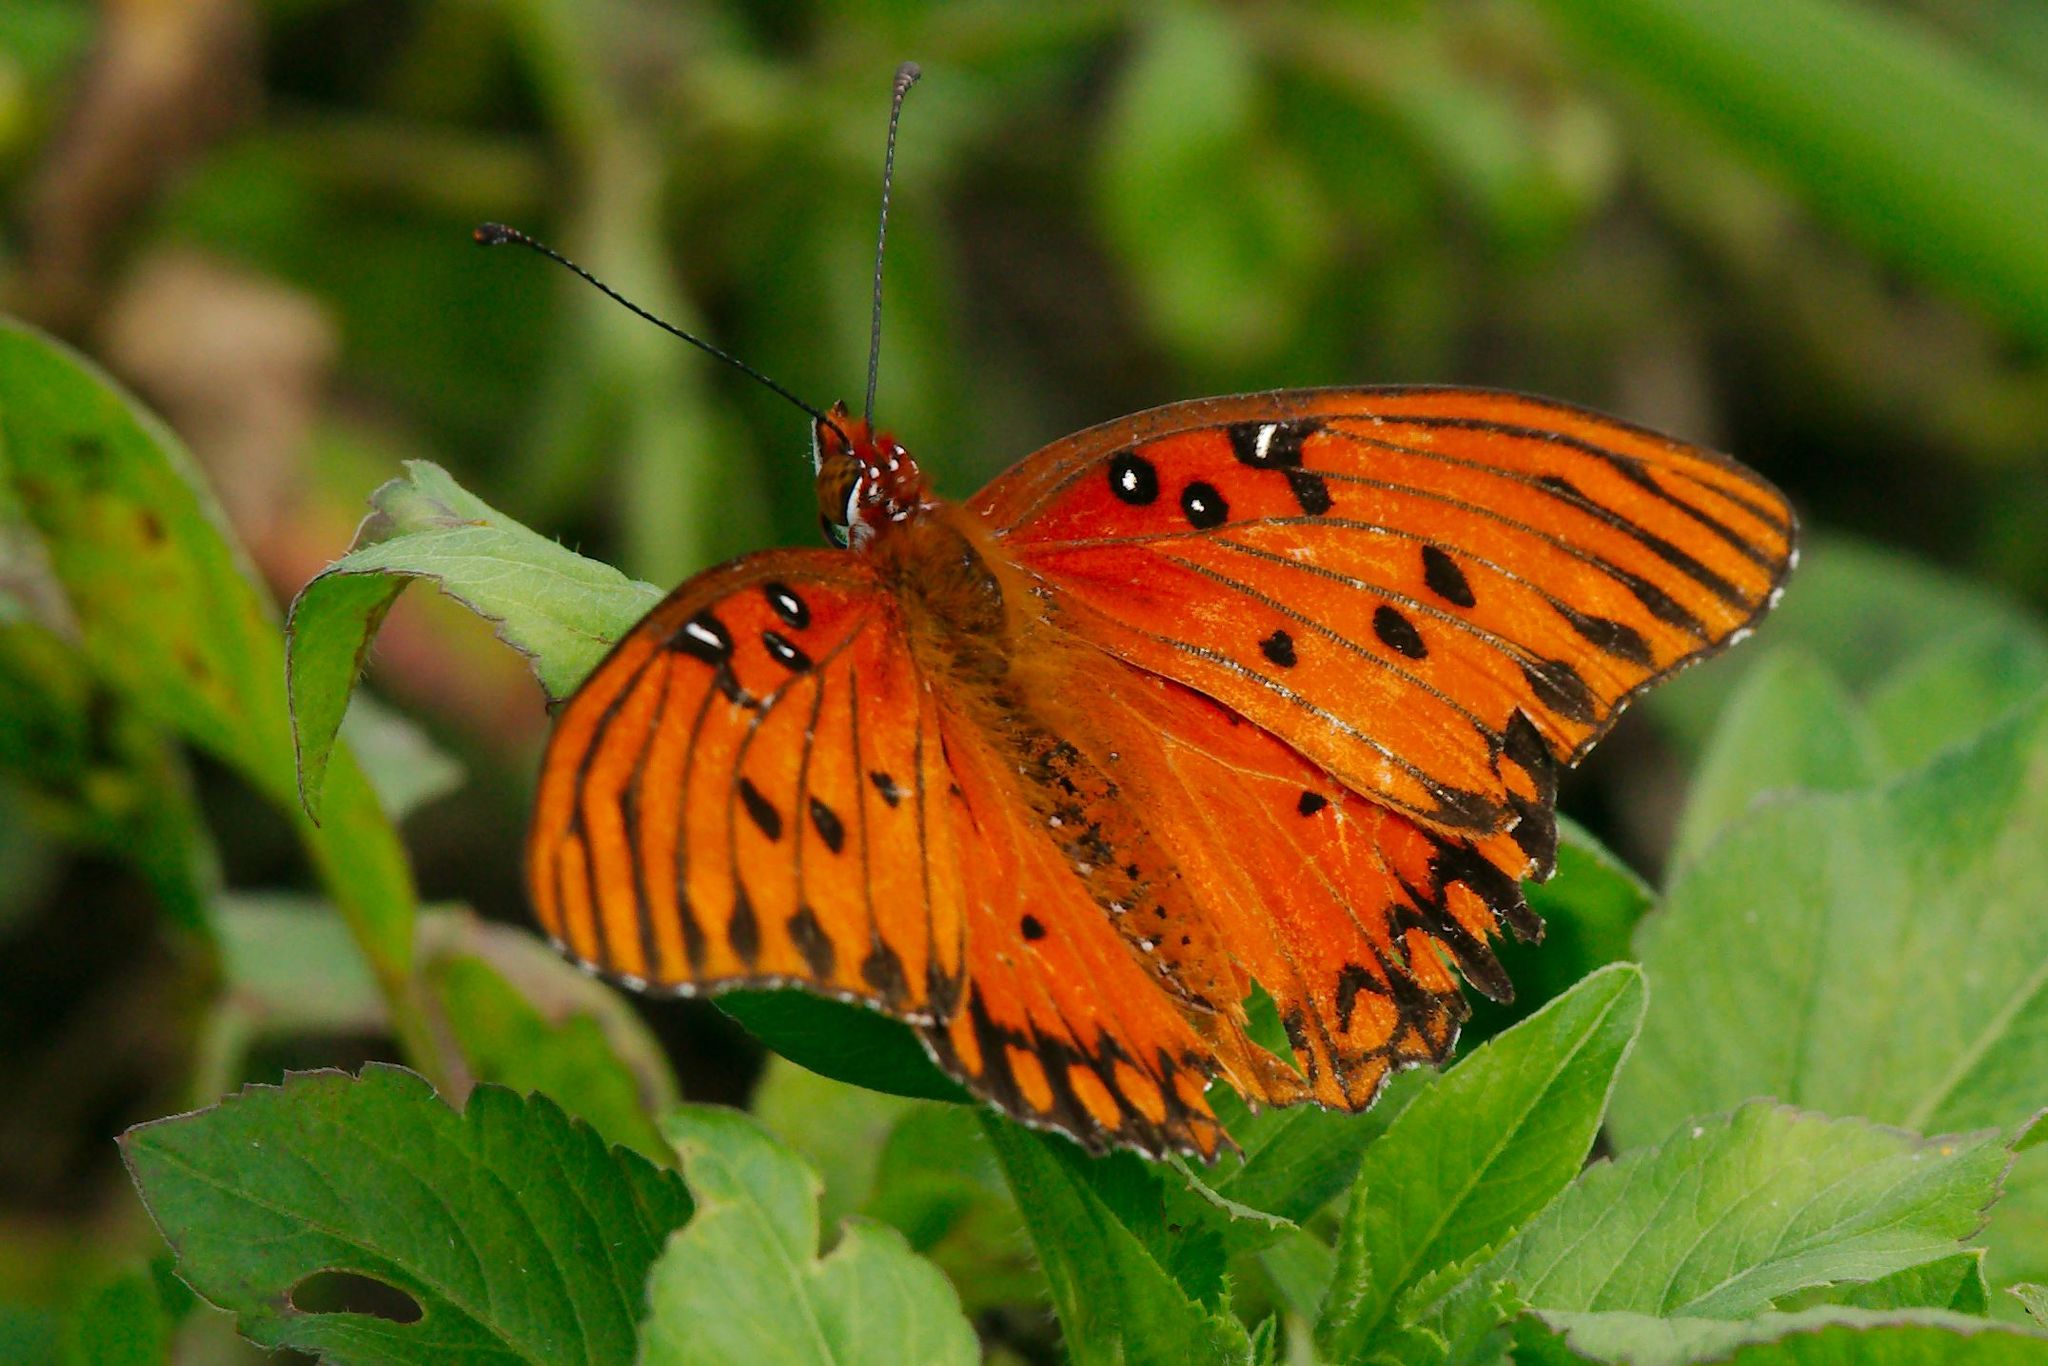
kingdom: Animalia
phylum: Arthropoda
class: Insecta
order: Lepidoptera
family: Nymphalidae
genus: Dione
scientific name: Dione vanillae
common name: Gulf fritillary
